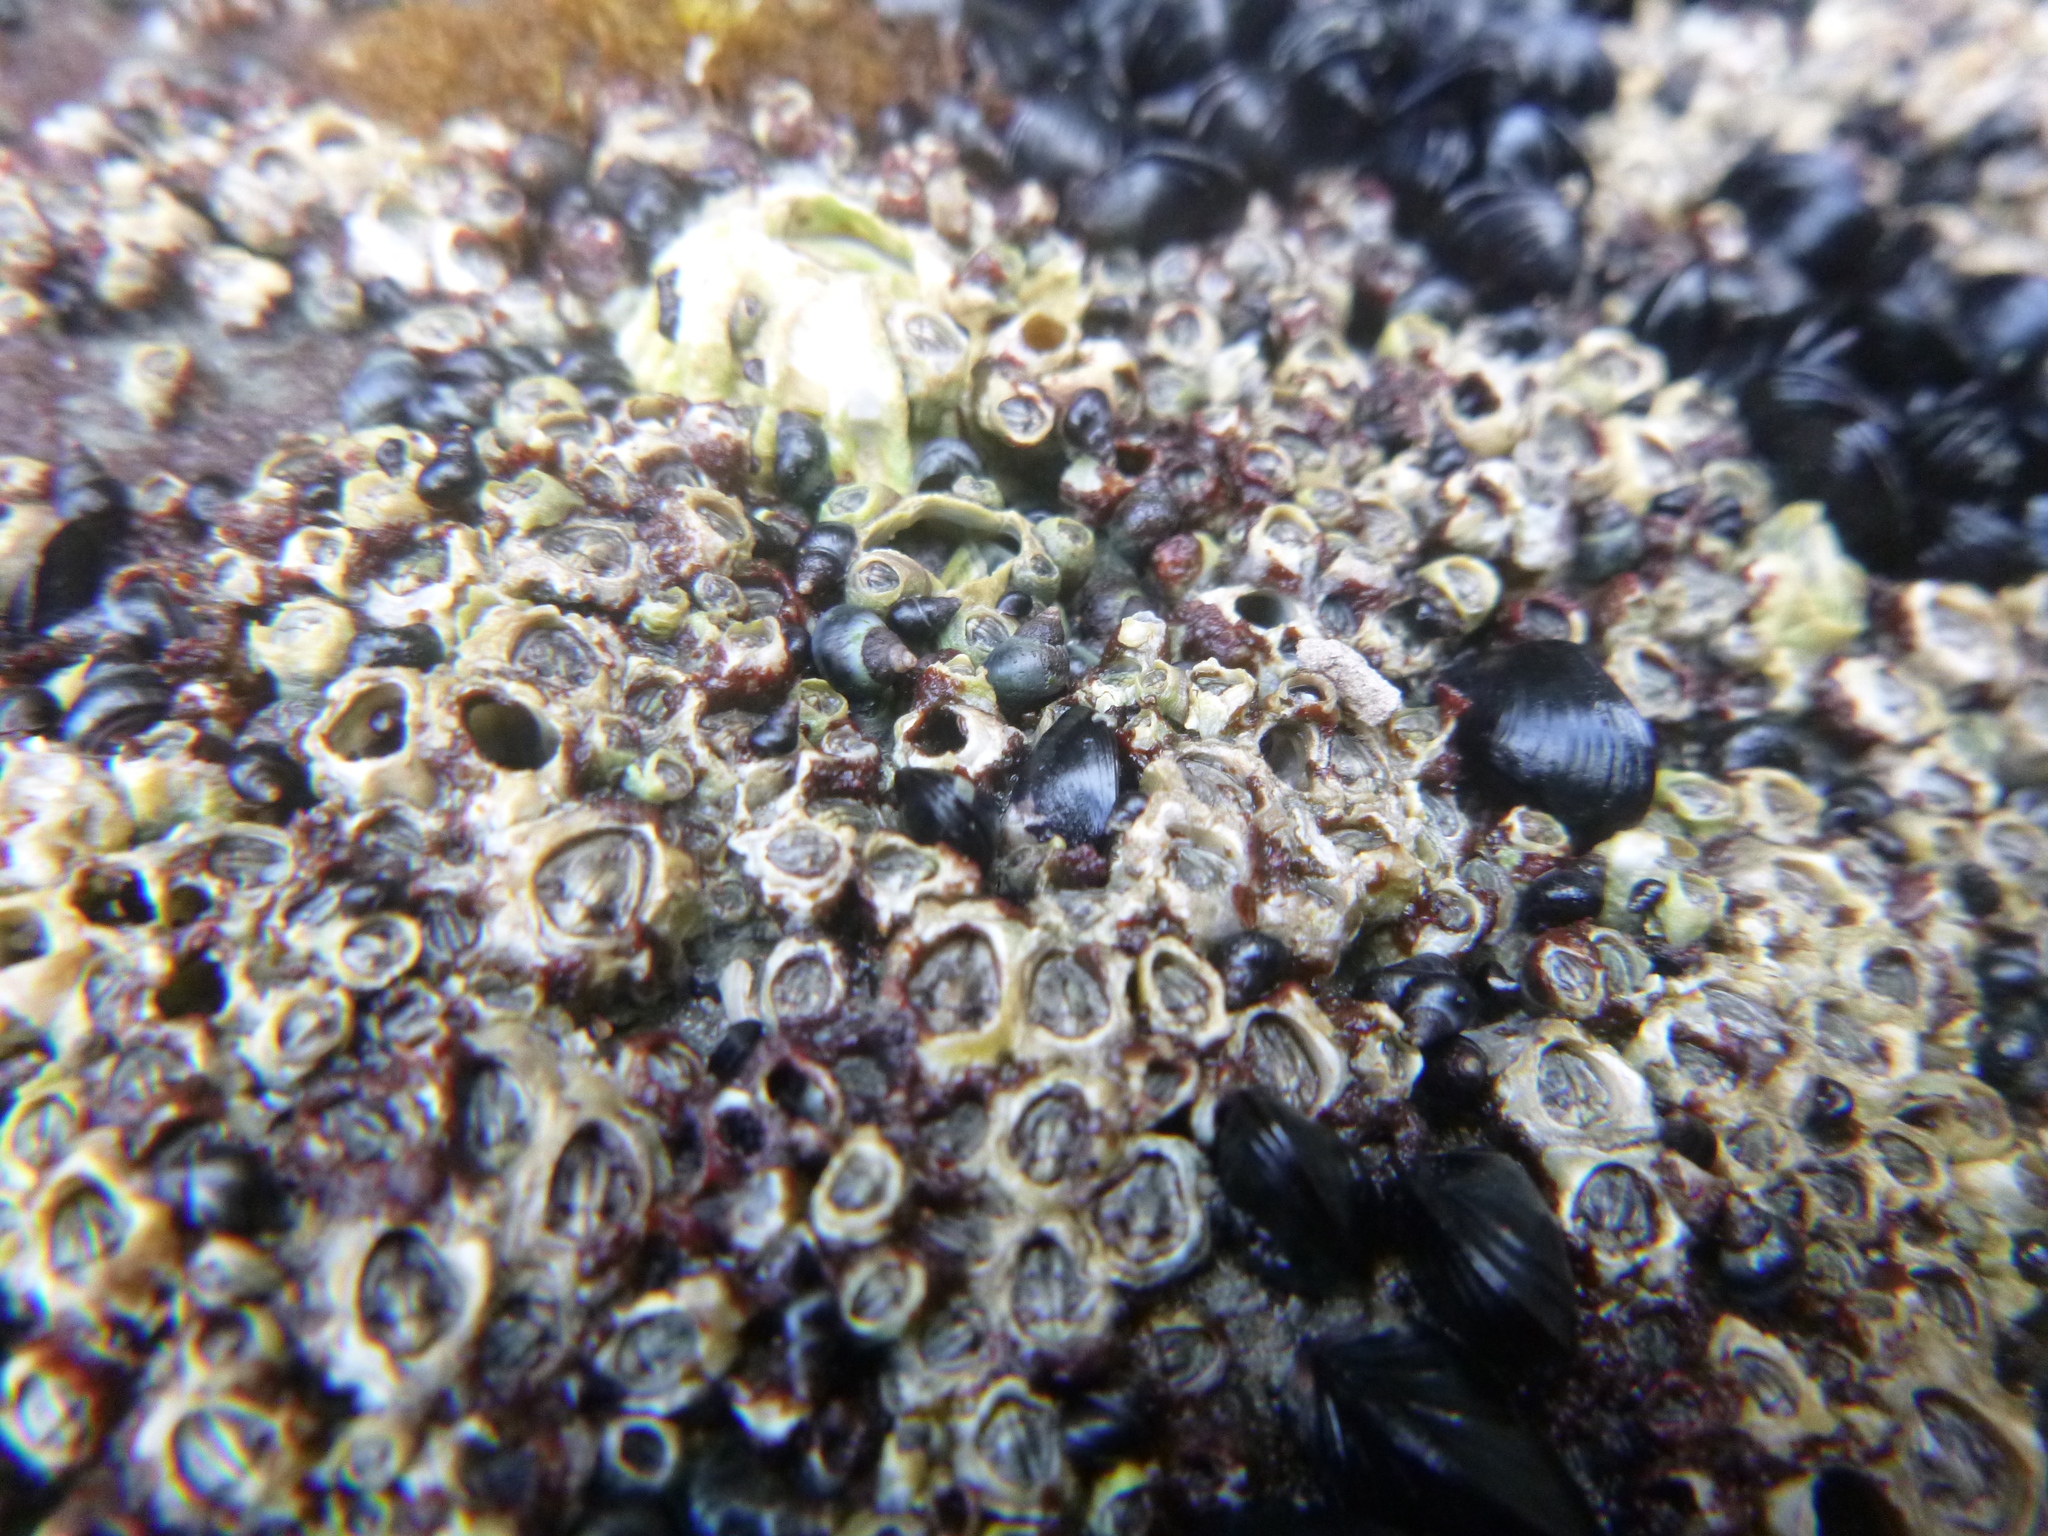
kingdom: Animalia
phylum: Arthropoda
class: Maxillopoda
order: Sessilia
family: Chthamalidae
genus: Chamaesipho
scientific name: Chamaesipho columna
